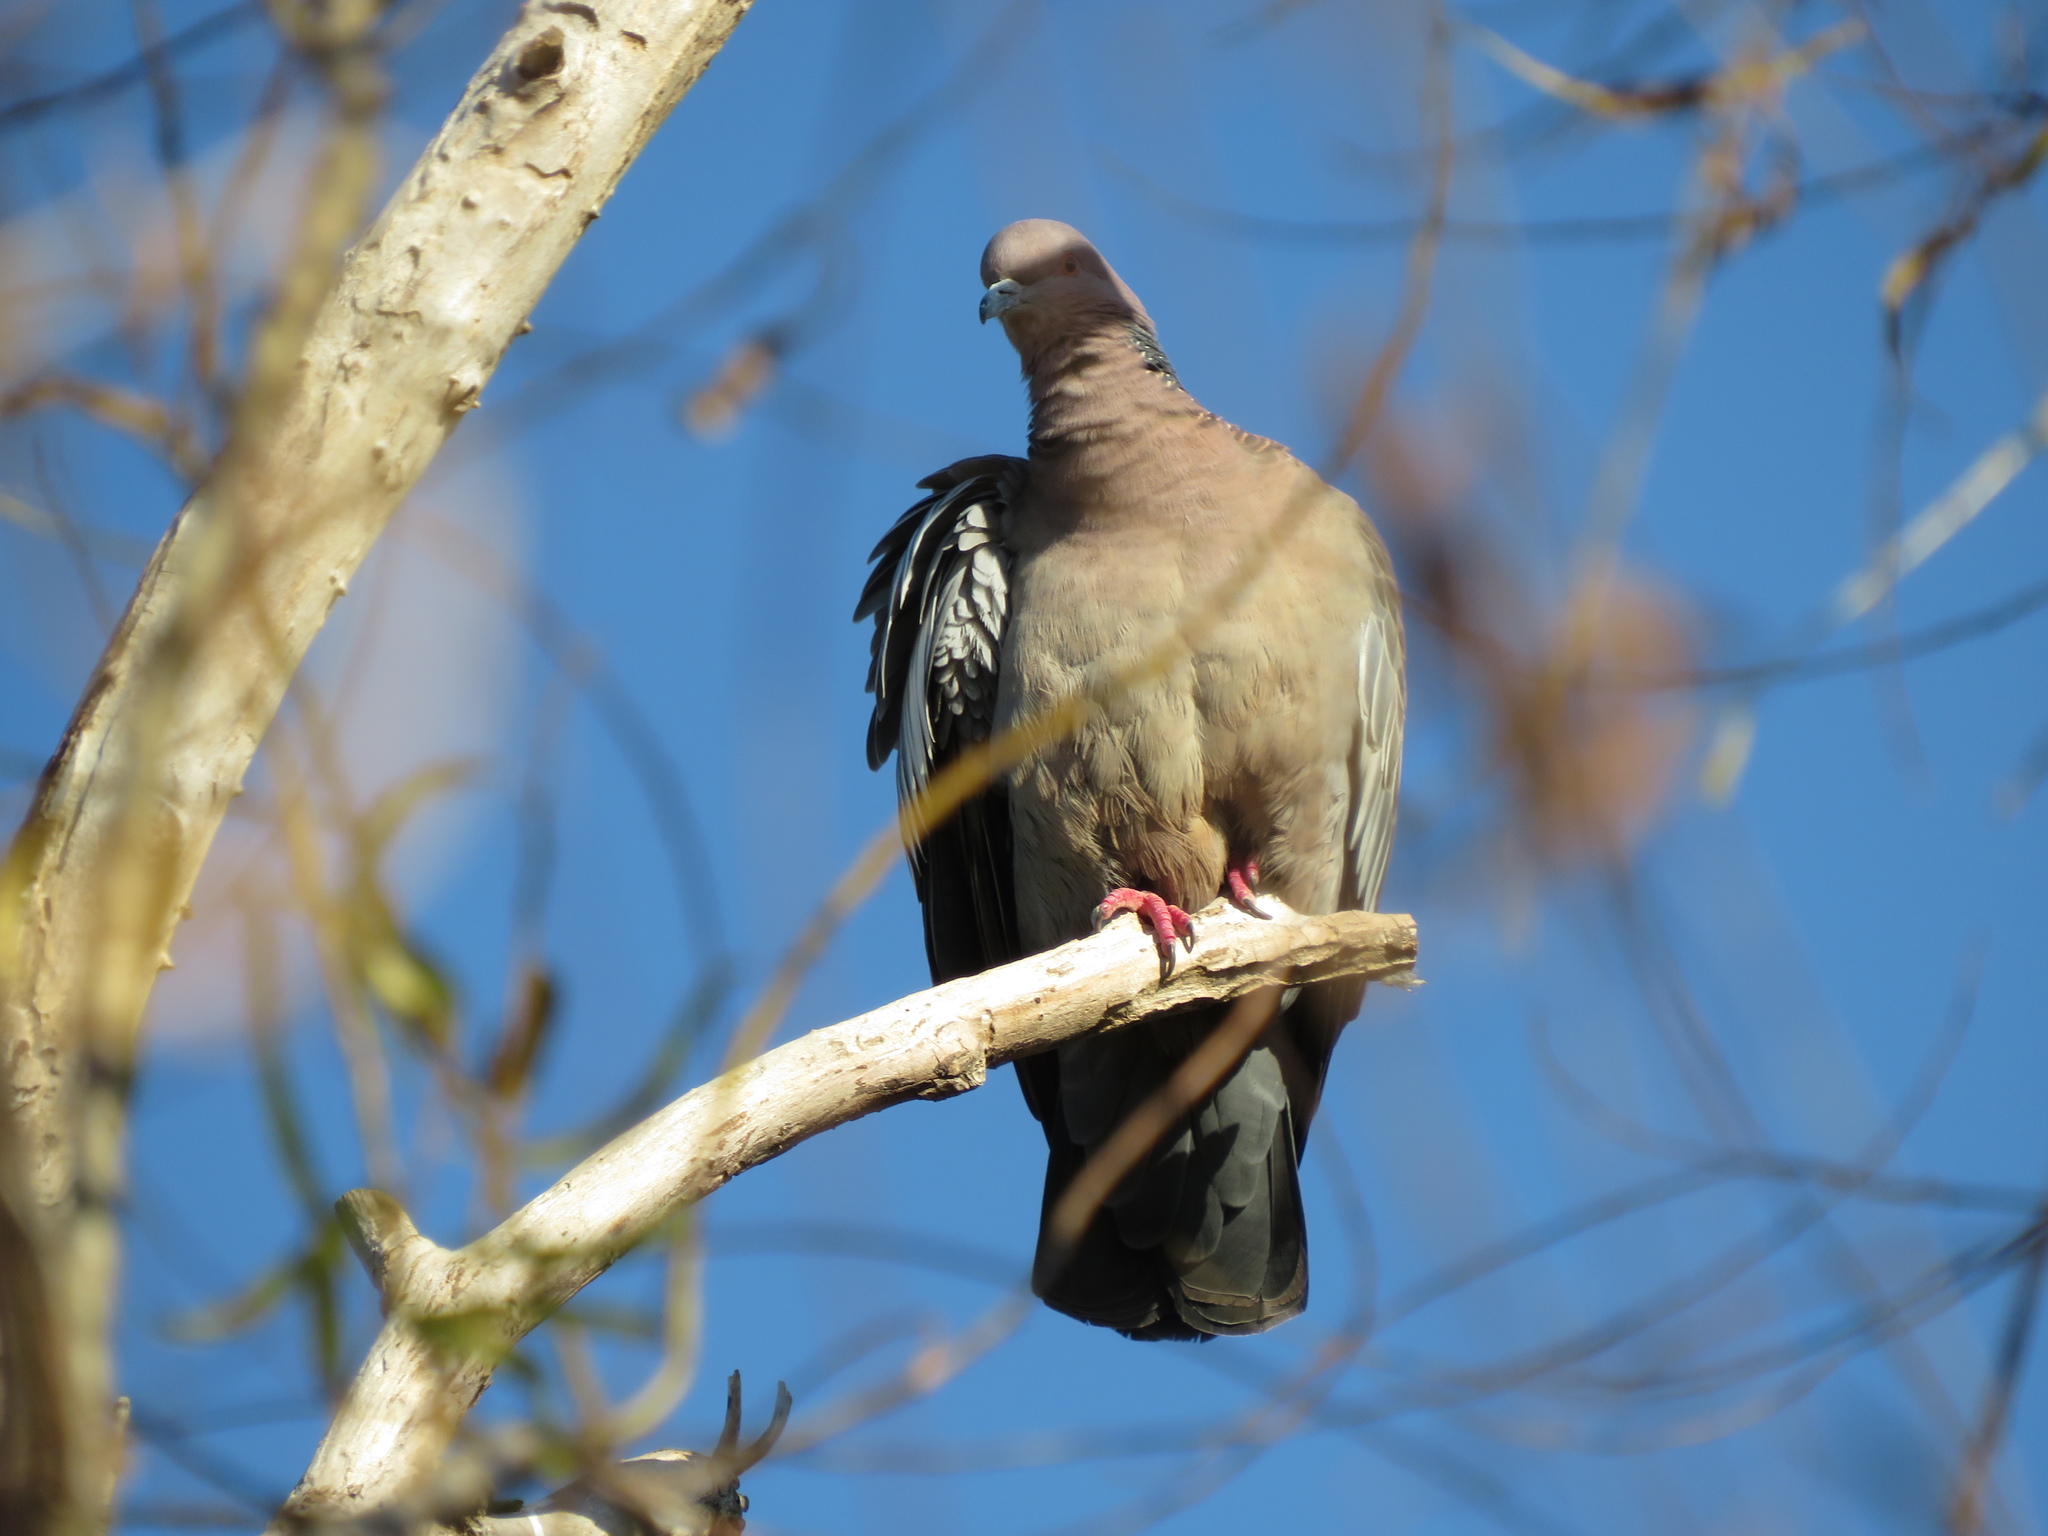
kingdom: Animalia
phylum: Chordata
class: Aves
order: Columbiformes
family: Columbidae
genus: Patagioenas
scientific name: Patagioenas picazuro
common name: Picazuro pigeon
